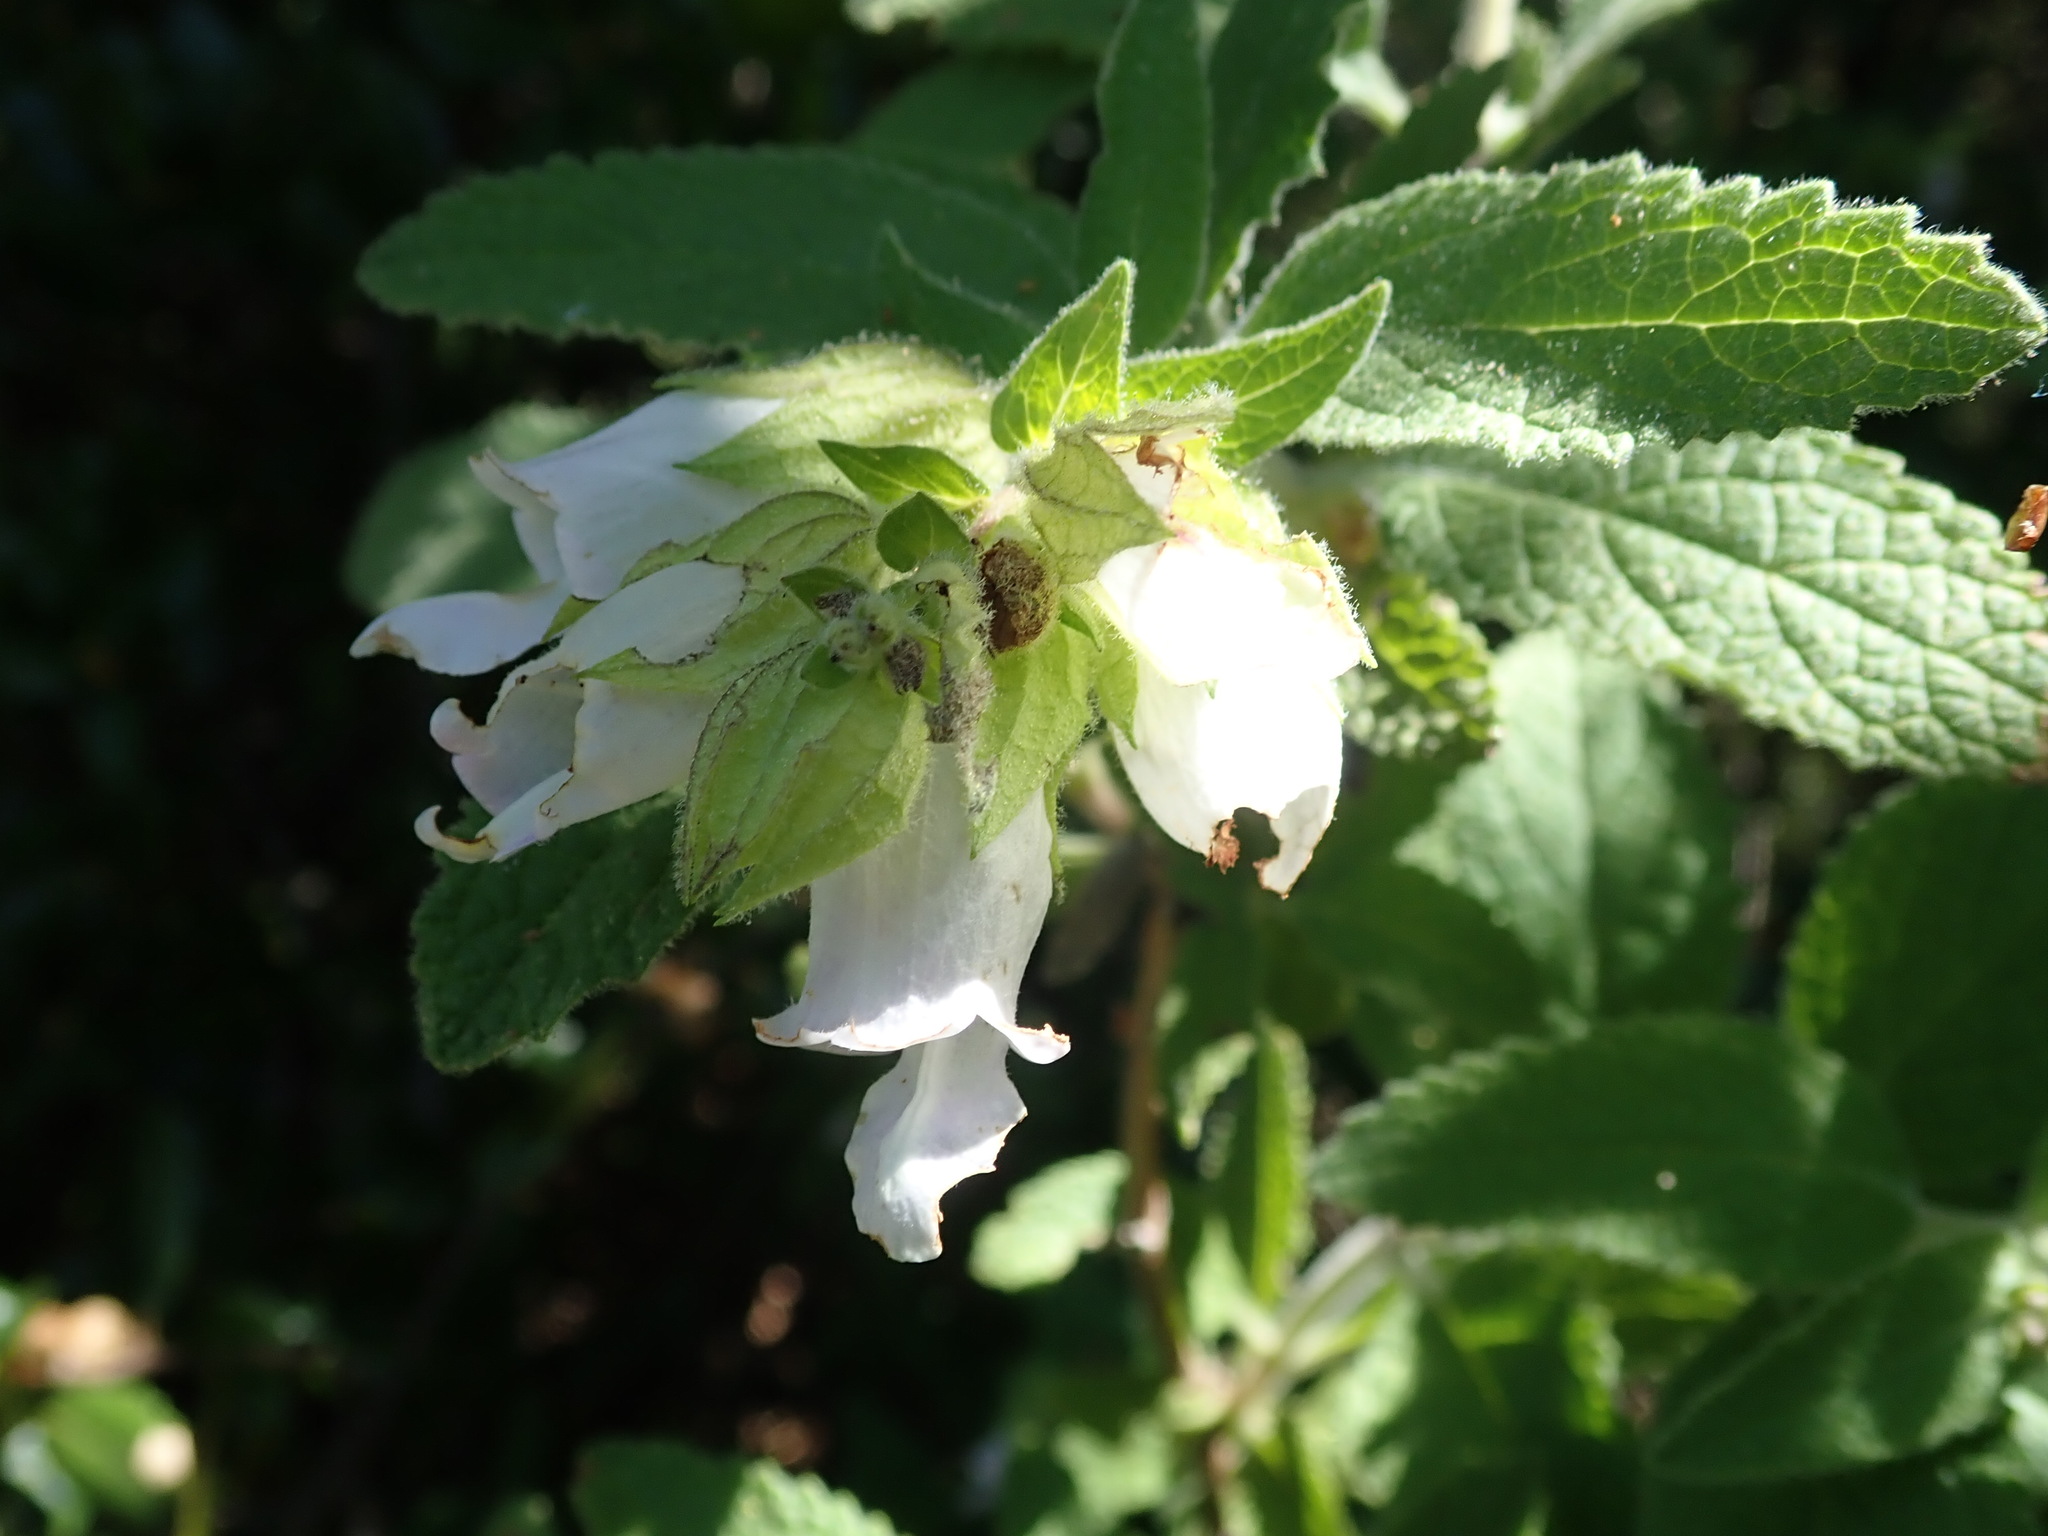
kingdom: Plantae
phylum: Tracheophyta
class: Magnoliopsida
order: Lamiales
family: Lamiaceae
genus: Lepechinia
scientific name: Lepechinia calycina
